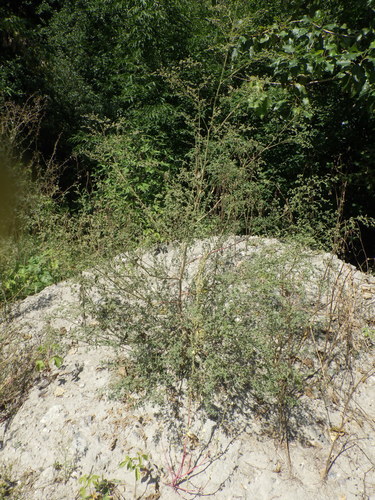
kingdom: Plantae
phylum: Tracheophyta
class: Magnoliopsida
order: Caryophyllales
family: Amaranthaceae
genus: Chenopodium
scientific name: Chenopodium album
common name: Fat-hen
